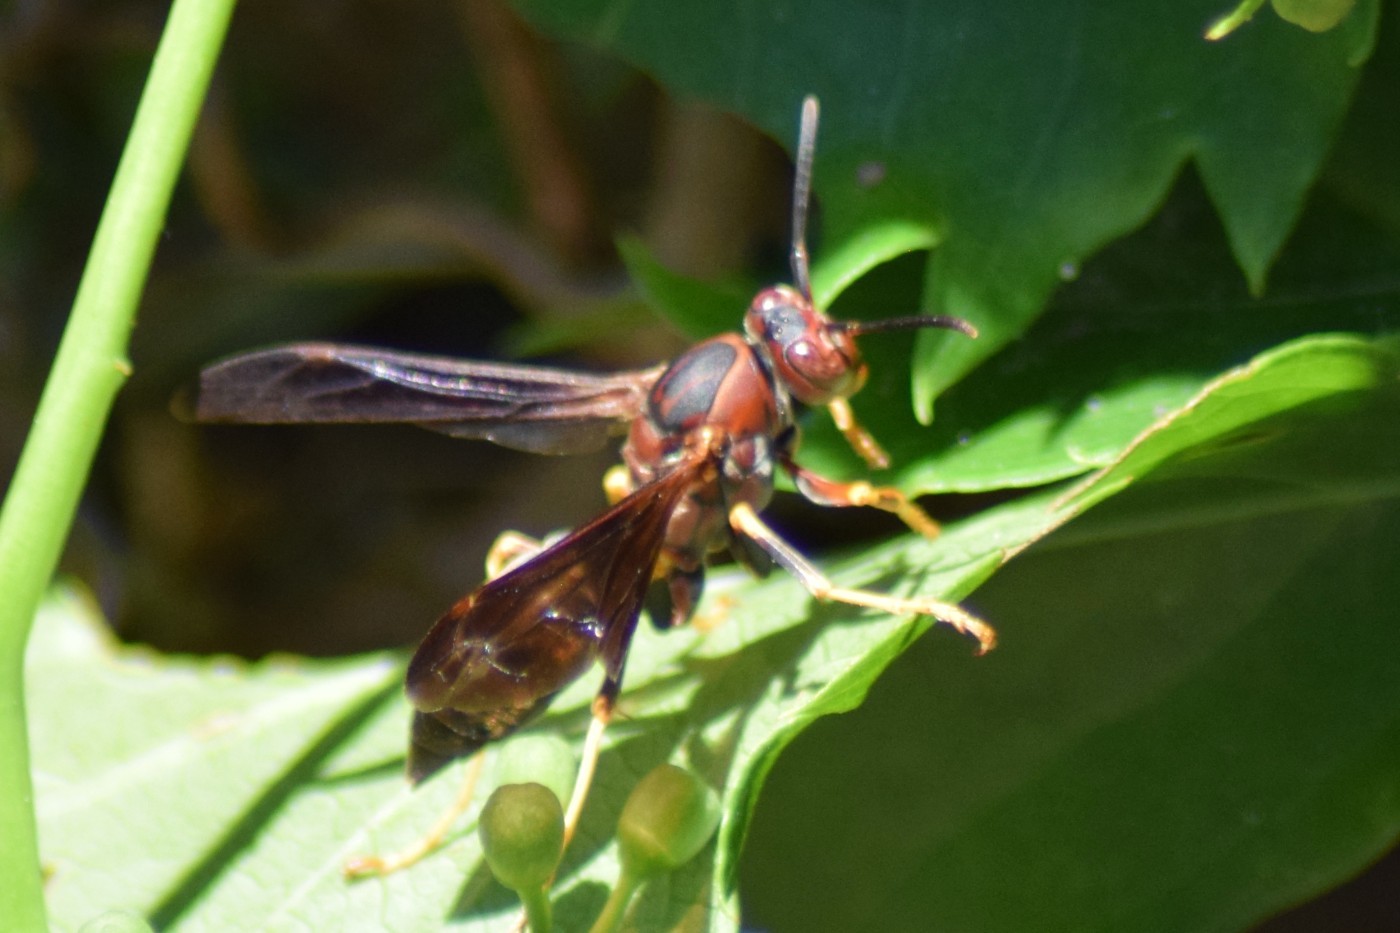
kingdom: Animalia
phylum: Arthropoda
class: Insecta
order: Hymenoptera
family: Eumenidae
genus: Polistes
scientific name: Polistes metricus
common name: Metric paper wasp
